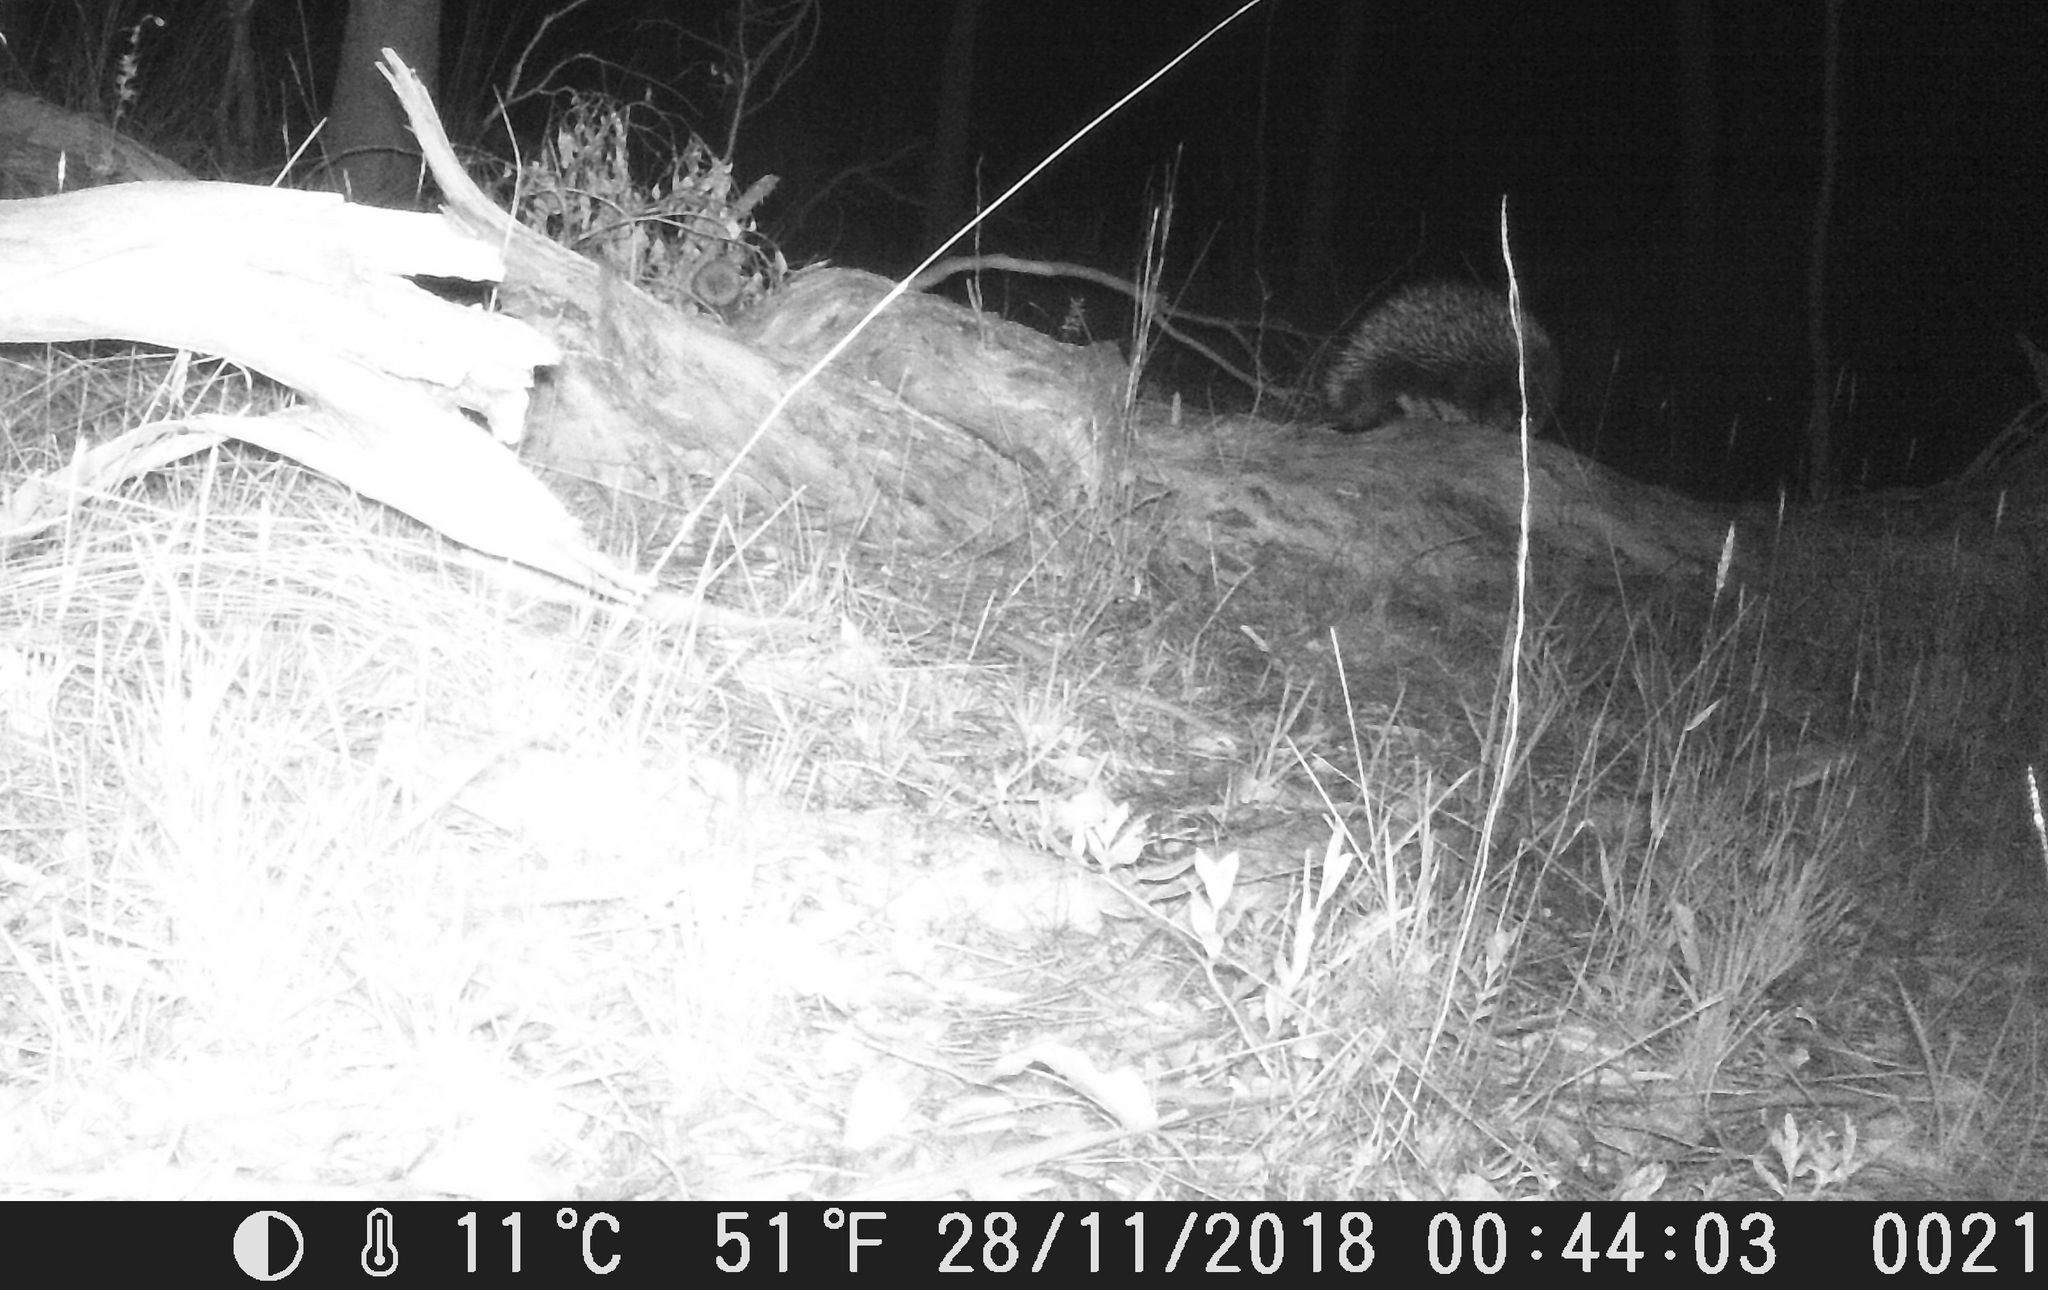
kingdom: Animalia
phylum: Chordata
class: Mammalia
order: Monotremata
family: Tachyglossidae
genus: Tachyglossus
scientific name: Tachyglossus aculeatus
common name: Short-beaked echidna
